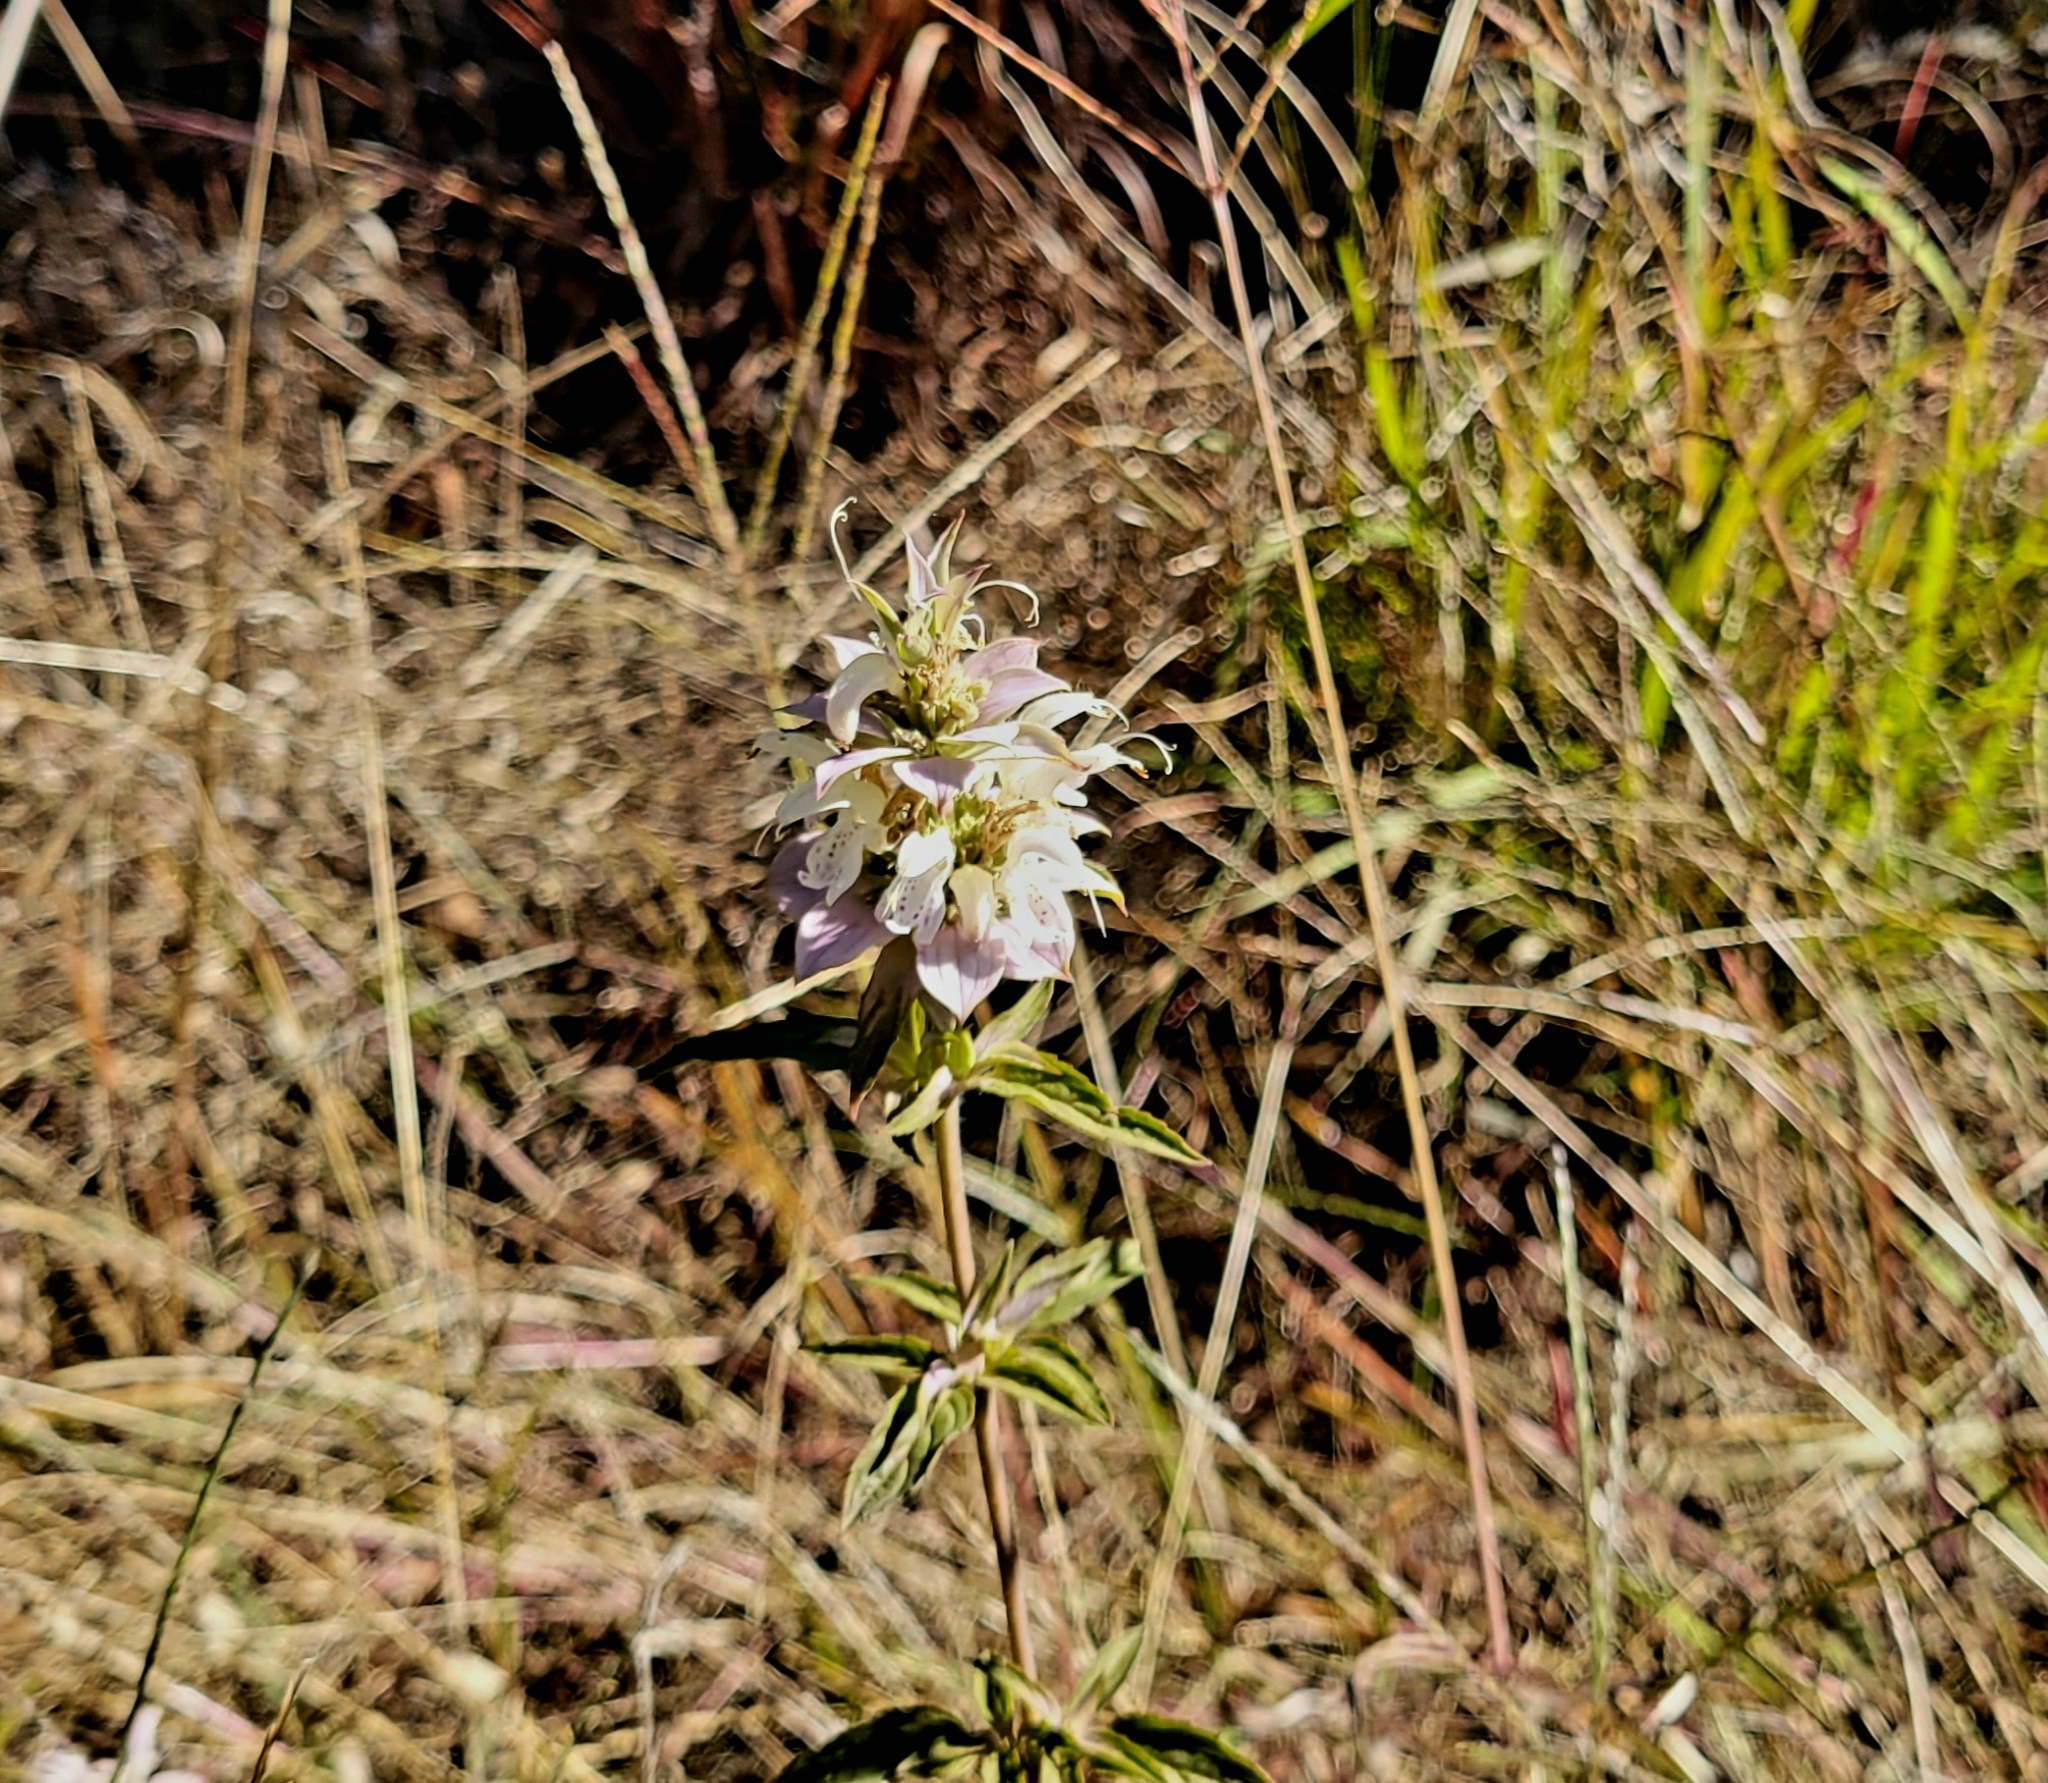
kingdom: Plantae
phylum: Tracheophyta
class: Magnoliopsida
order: Lamiales
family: Lamiaceae
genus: Monarda
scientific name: Monarda punctata
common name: Dotted monarda
